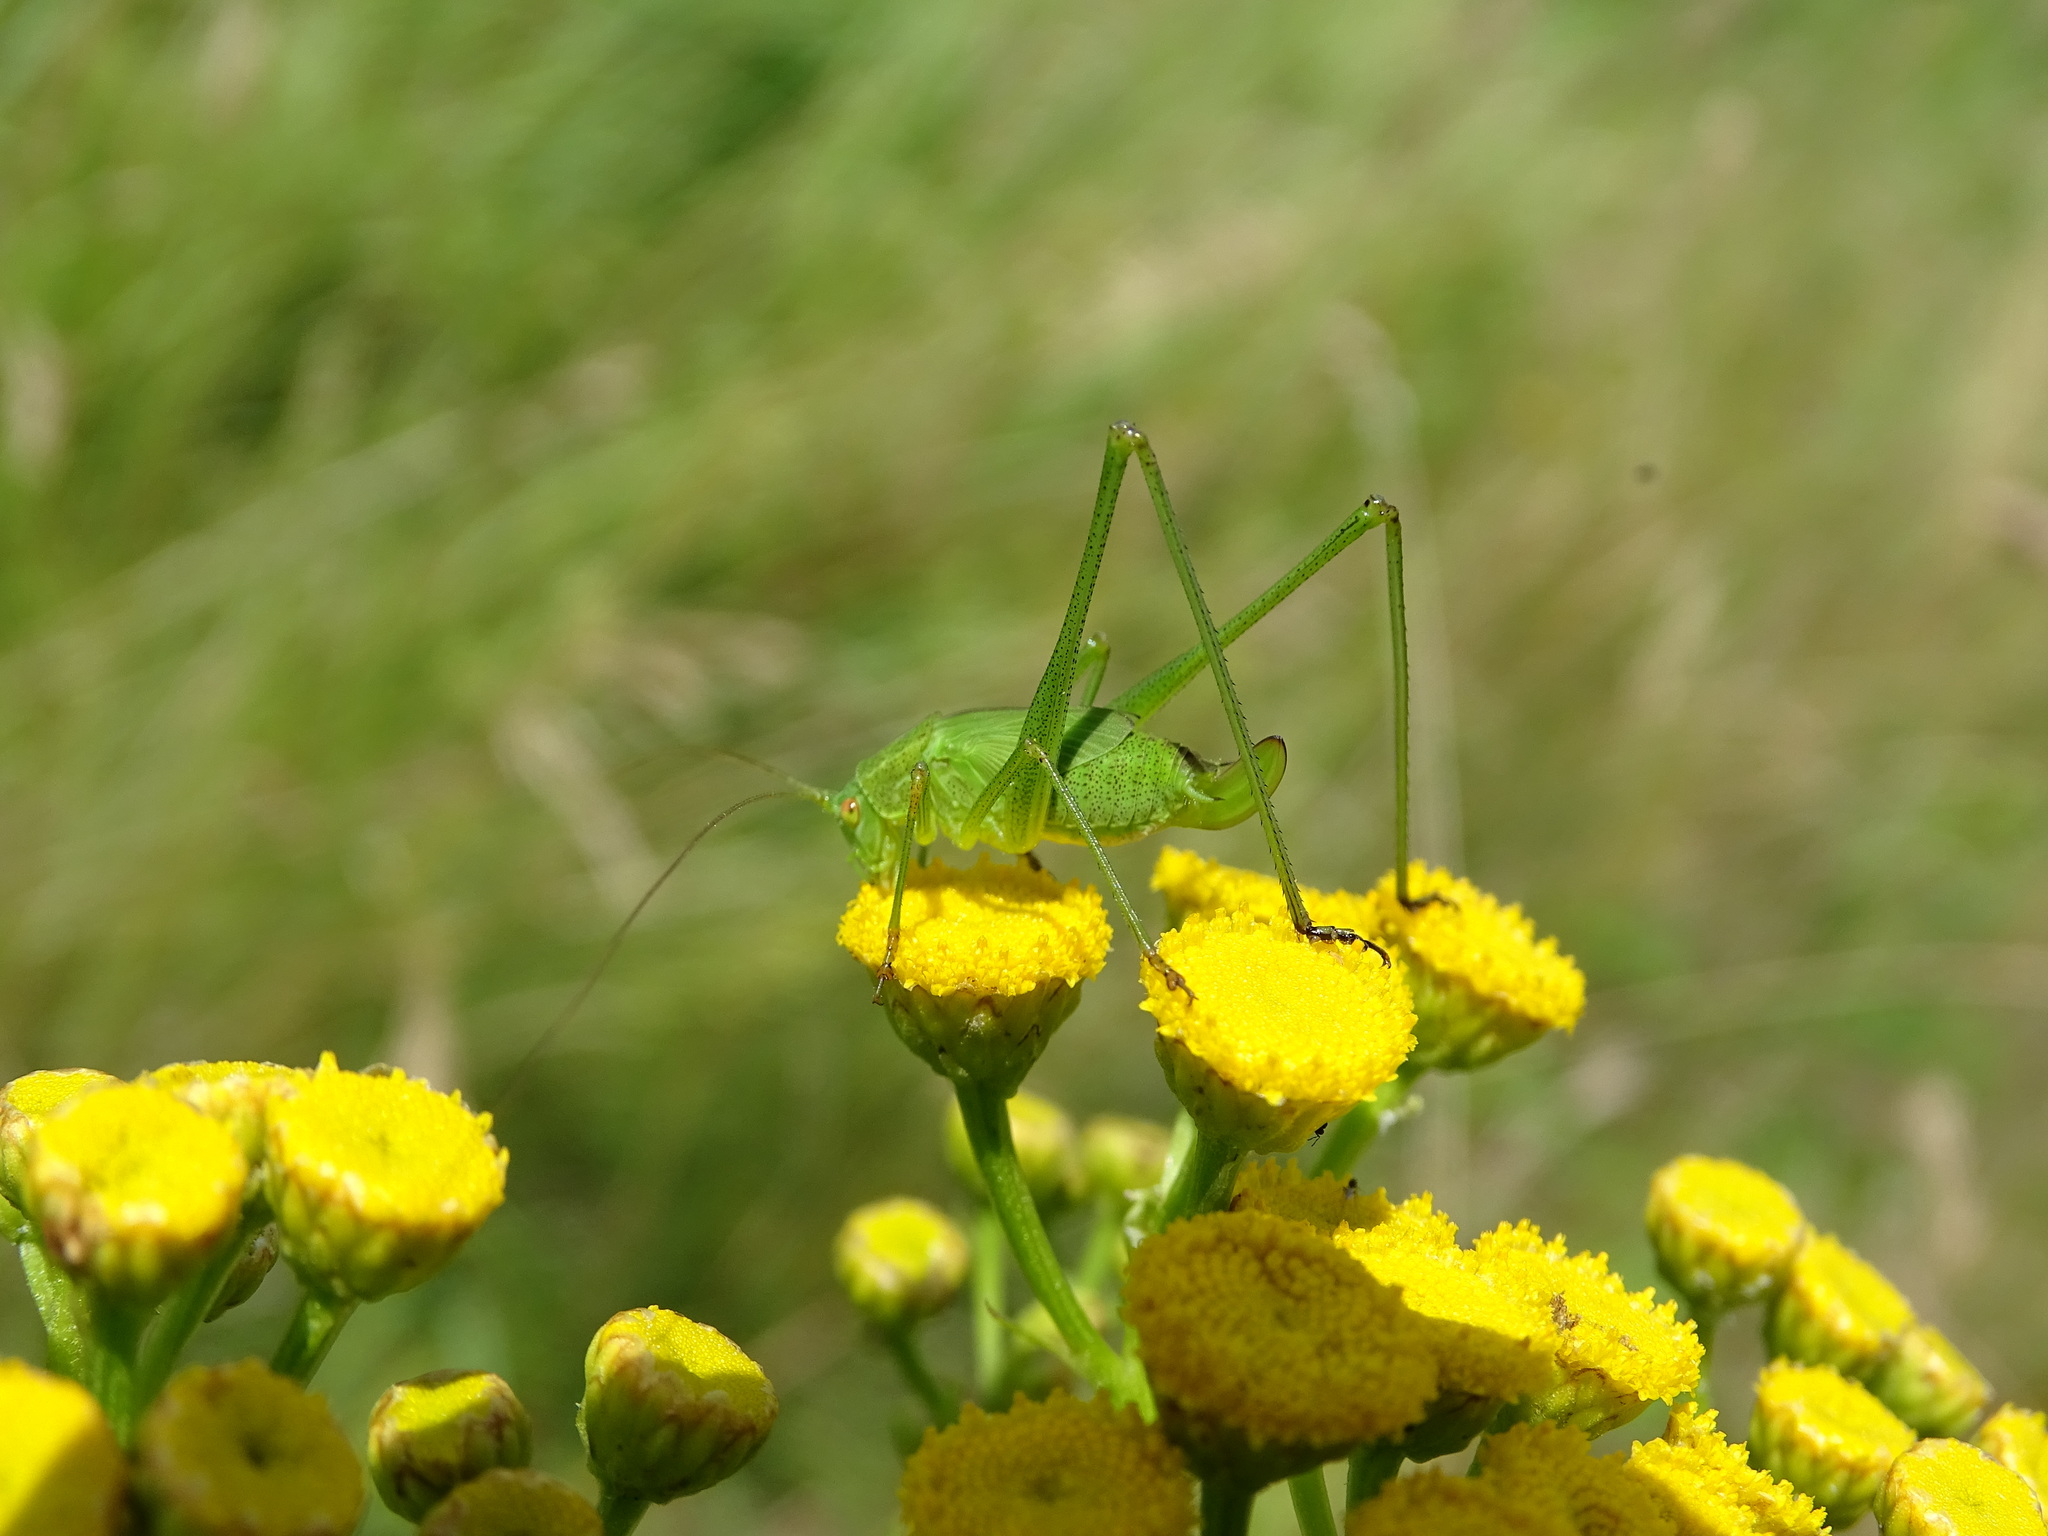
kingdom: Animalia
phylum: Arthropoda
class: Insecta
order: Orthoptera
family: Tettigoniidae
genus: Leptophyes
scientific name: Leptophyes punctatissima
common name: Speckled bush-cricket
